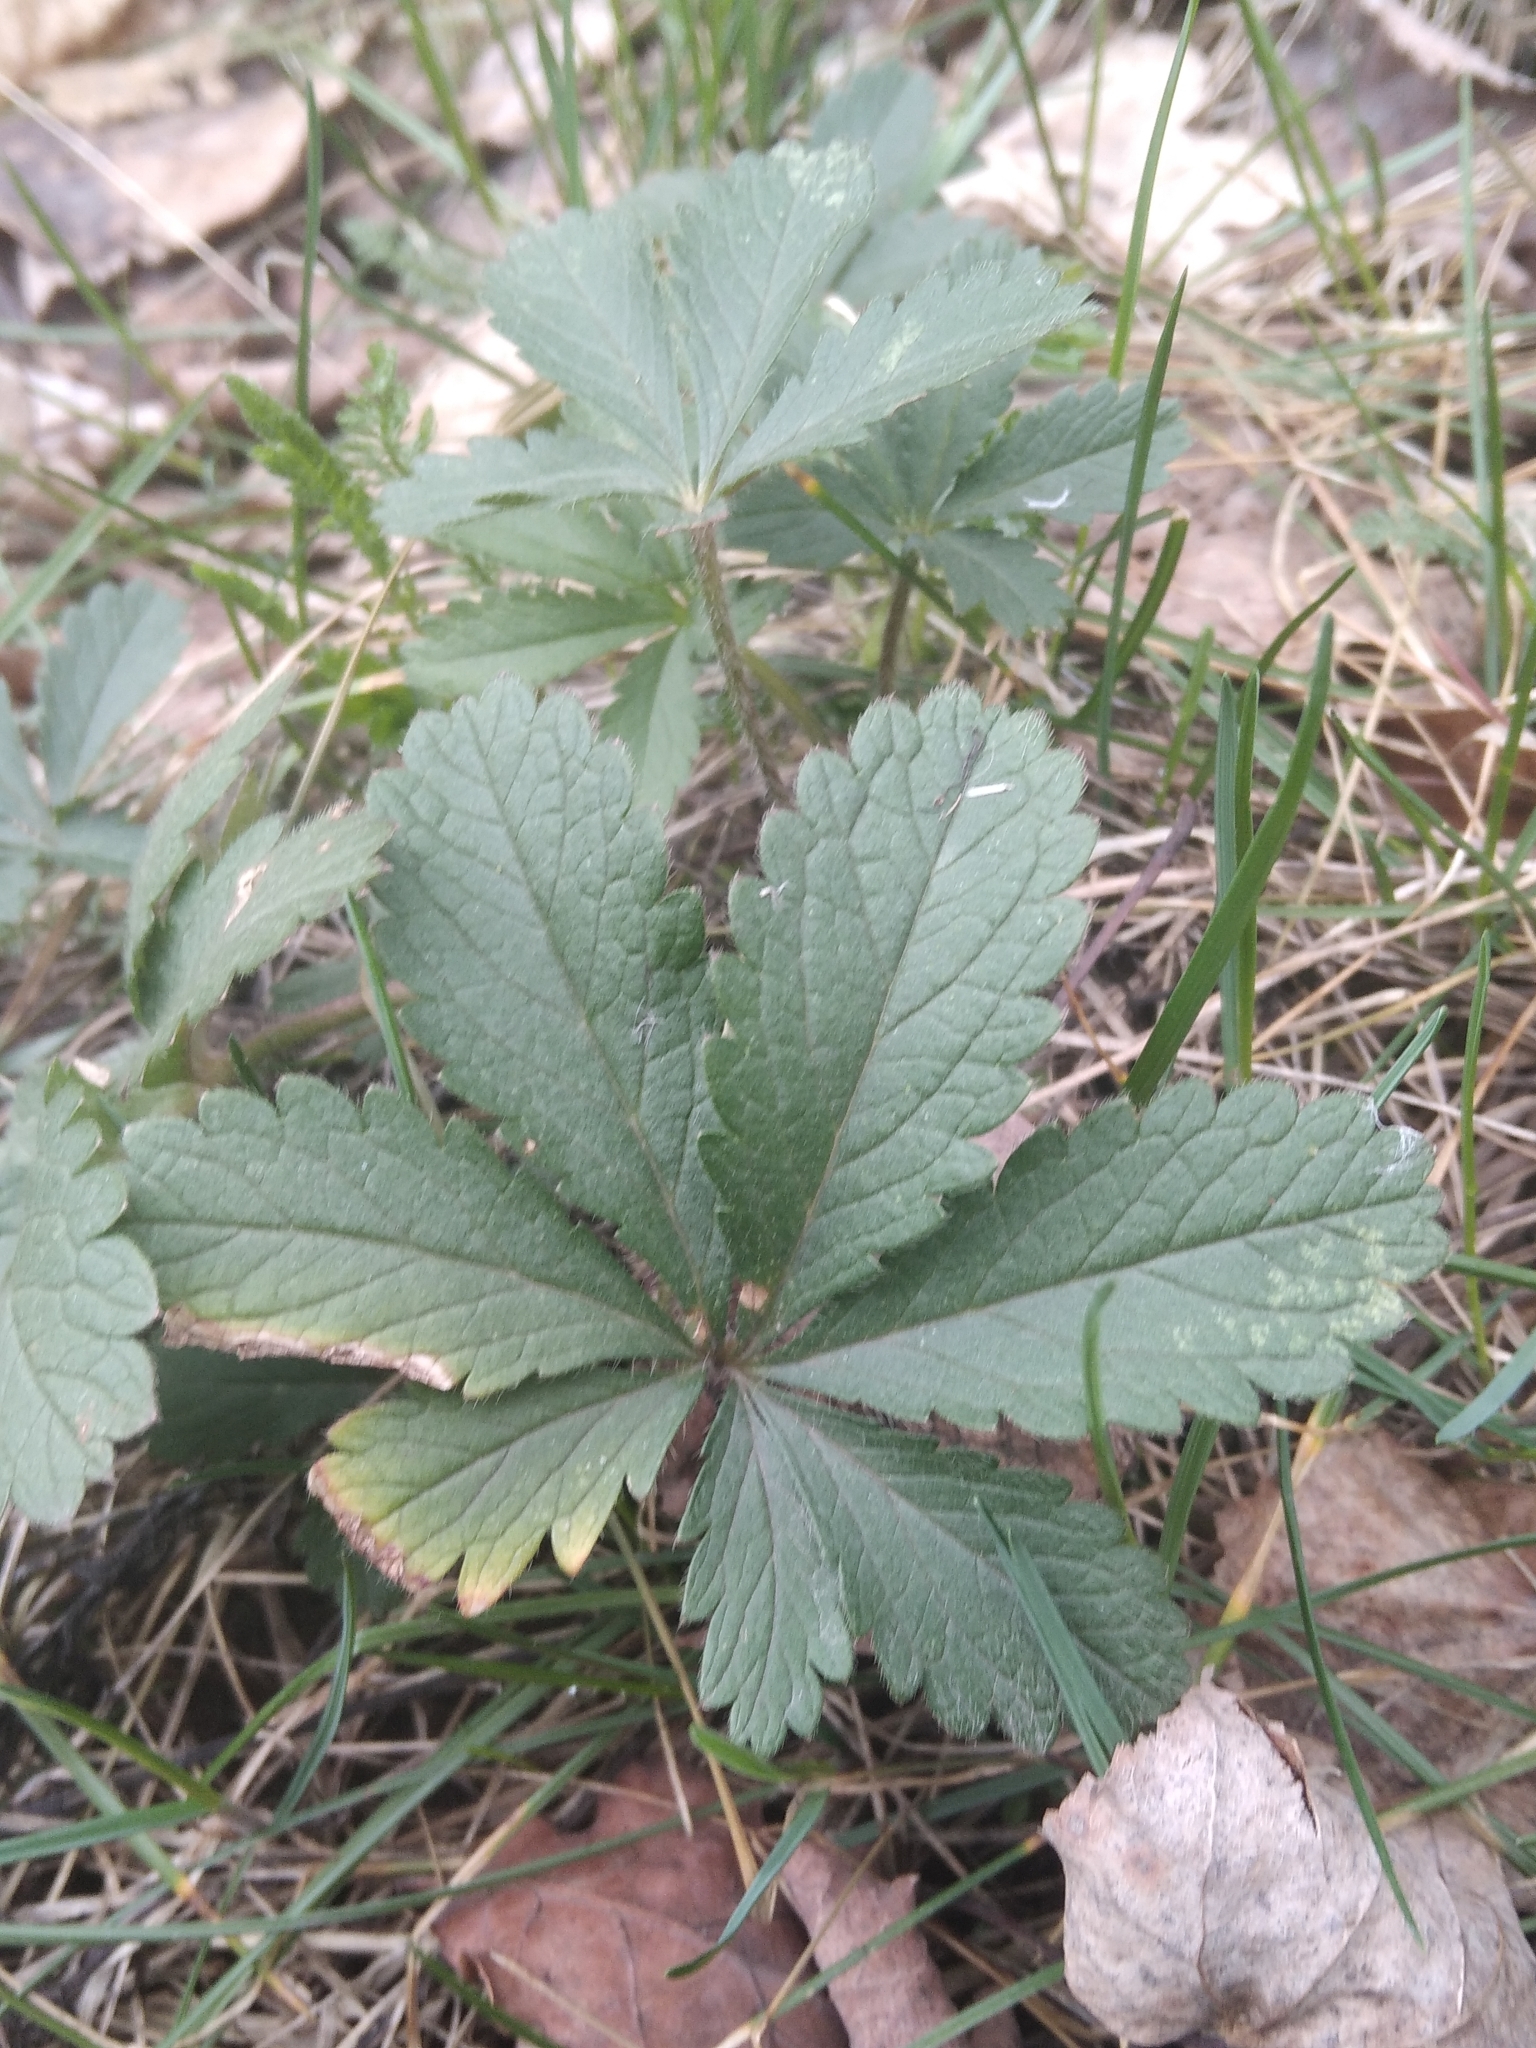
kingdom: Plantae
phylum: Tracheophyta
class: Magnoliopsida
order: Rosales
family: Rosaceae
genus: Potentilla
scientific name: Potentilla thuringiaca
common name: European cinquefoil
